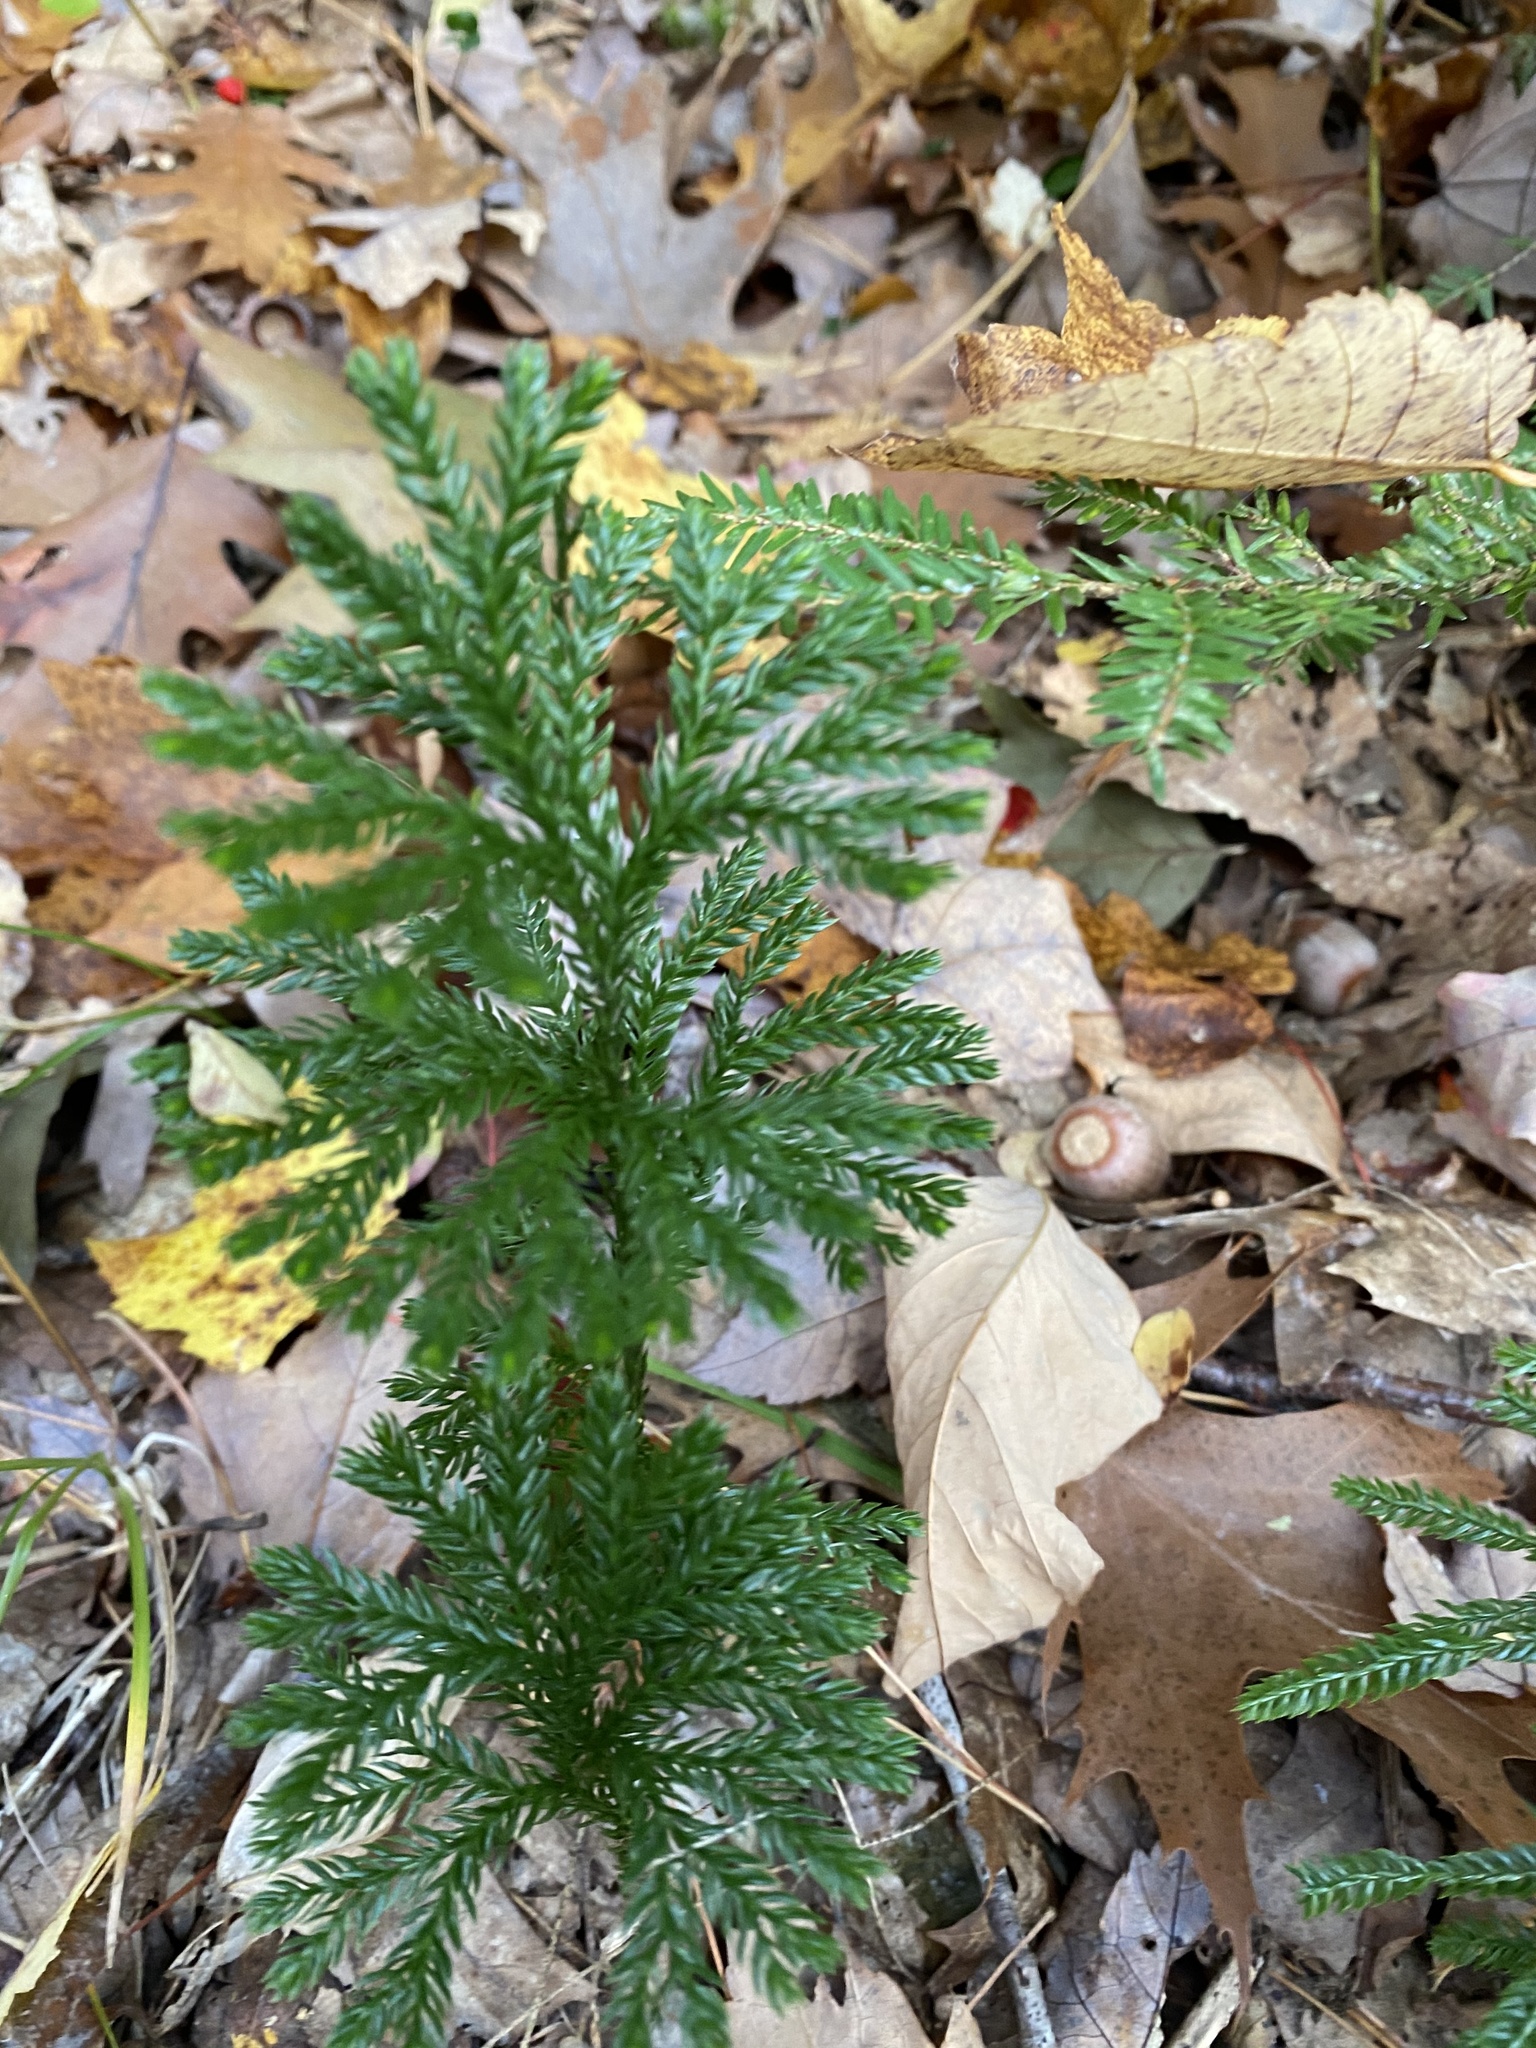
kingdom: Plantae
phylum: Tracheophyta
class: Lycopodiopsida
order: Lycopodiales
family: Lycopodiaceae
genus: Dendrolycopodium
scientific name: Dendrolycopodium obscurum
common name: Common ground-pine
